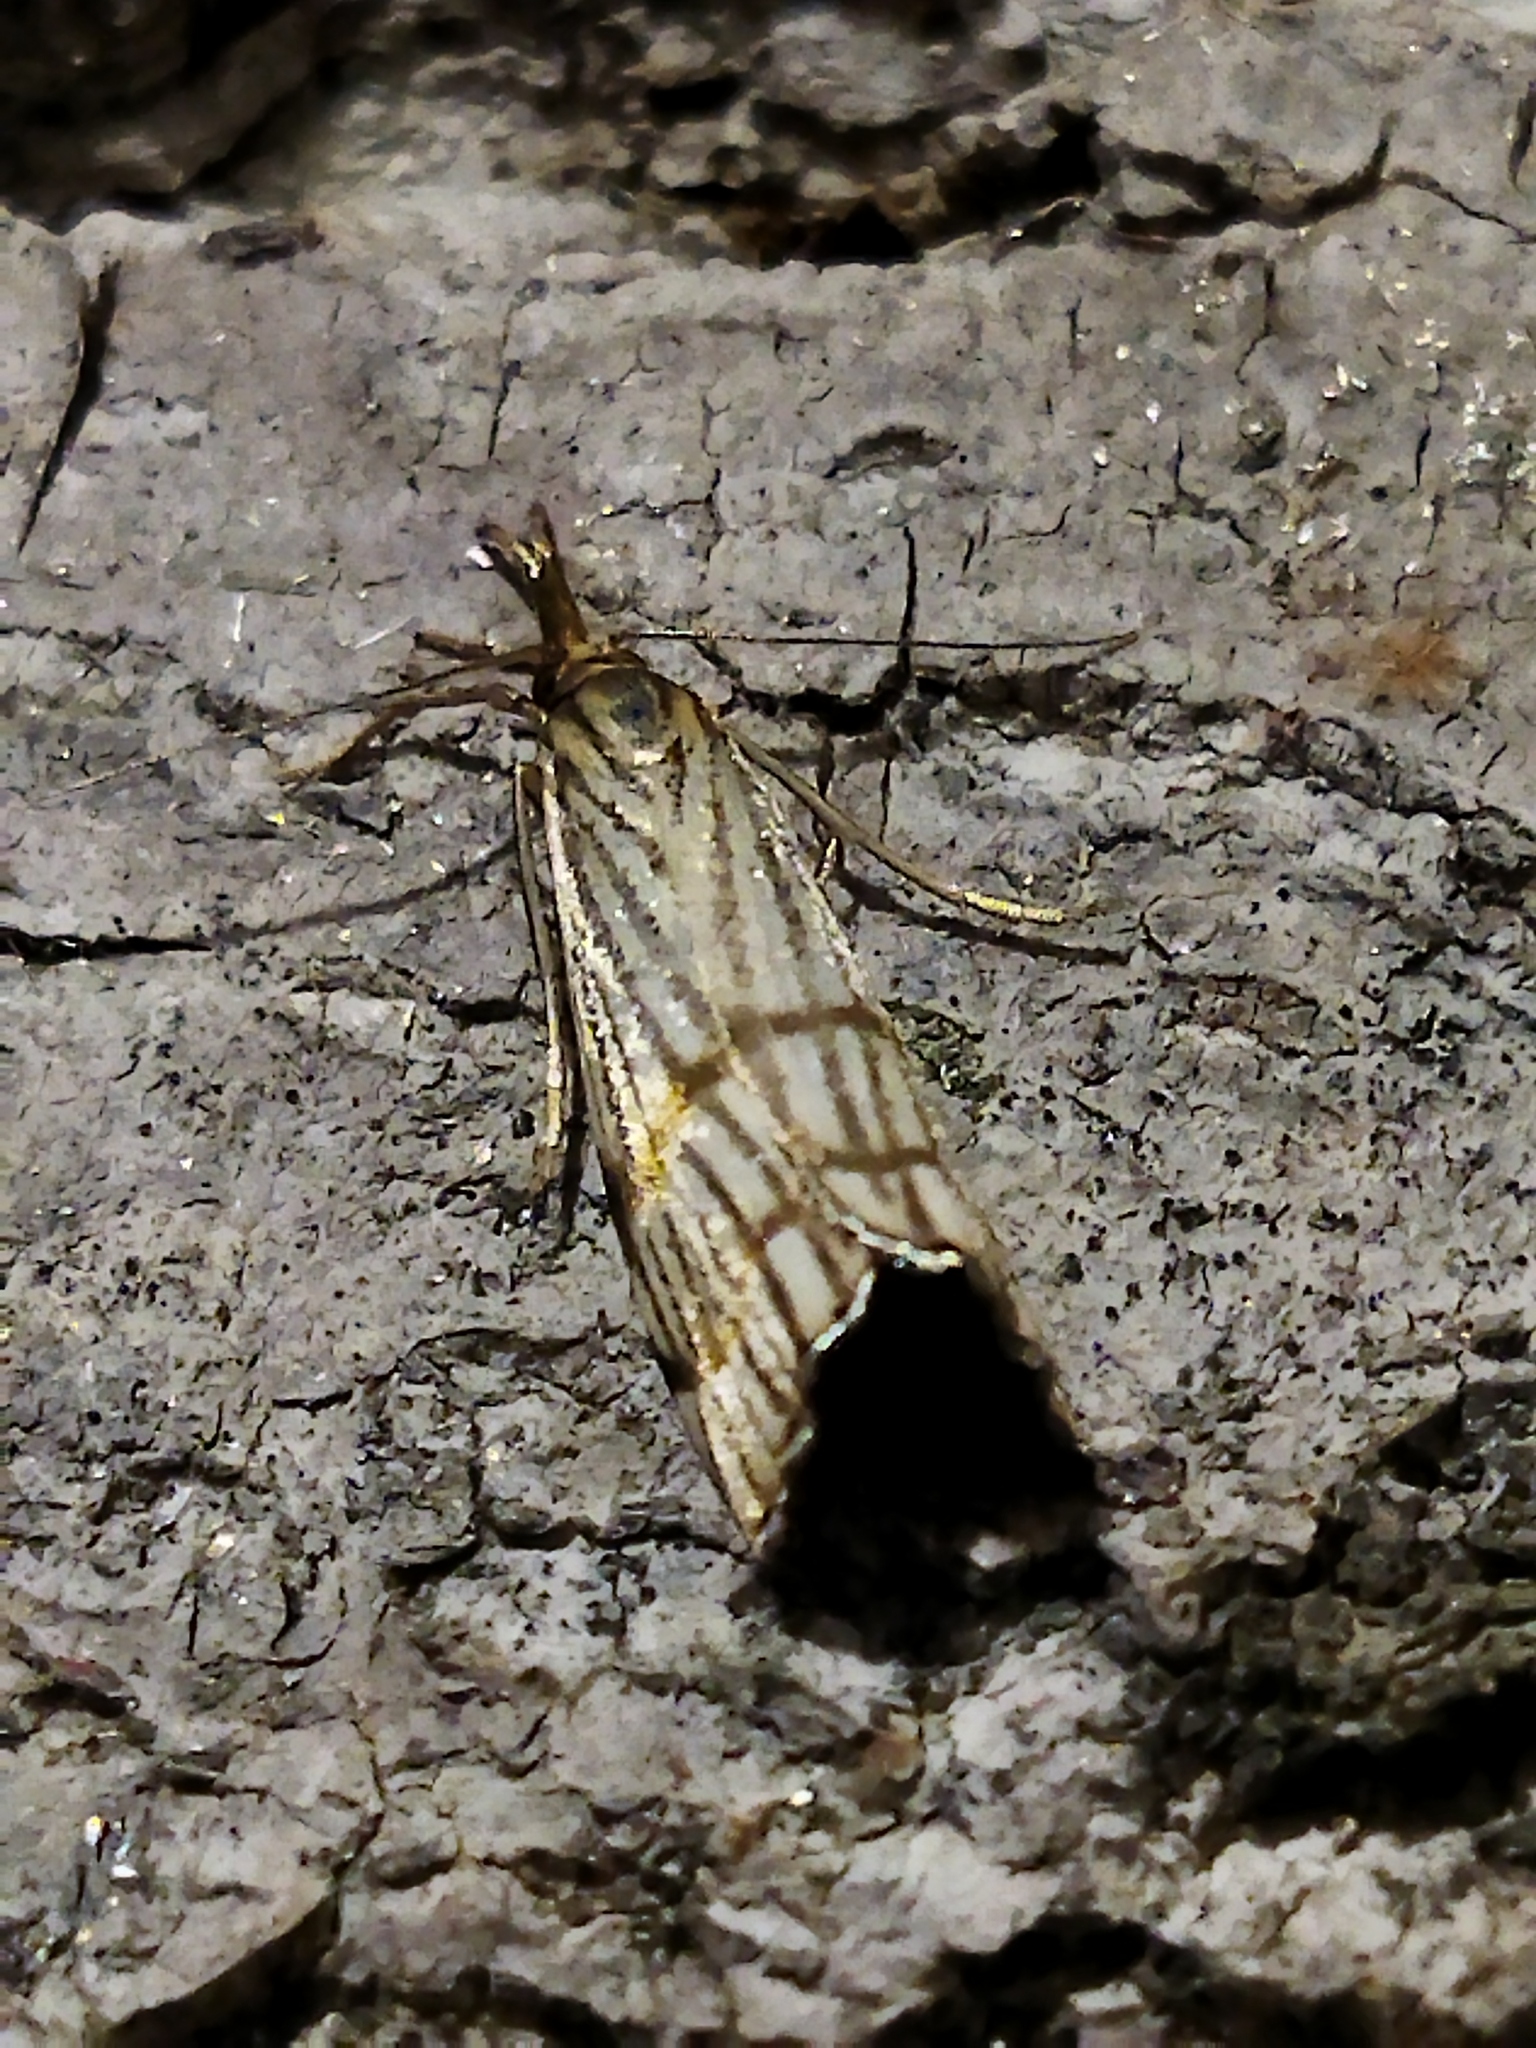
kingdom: Animalia
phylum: Arthropoda
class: Insecta
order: Lepidoptera
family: Crambidae
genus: Chrysocrambus
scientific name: Chrysocrambus linetella
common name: Orange-bar grass-veneer
